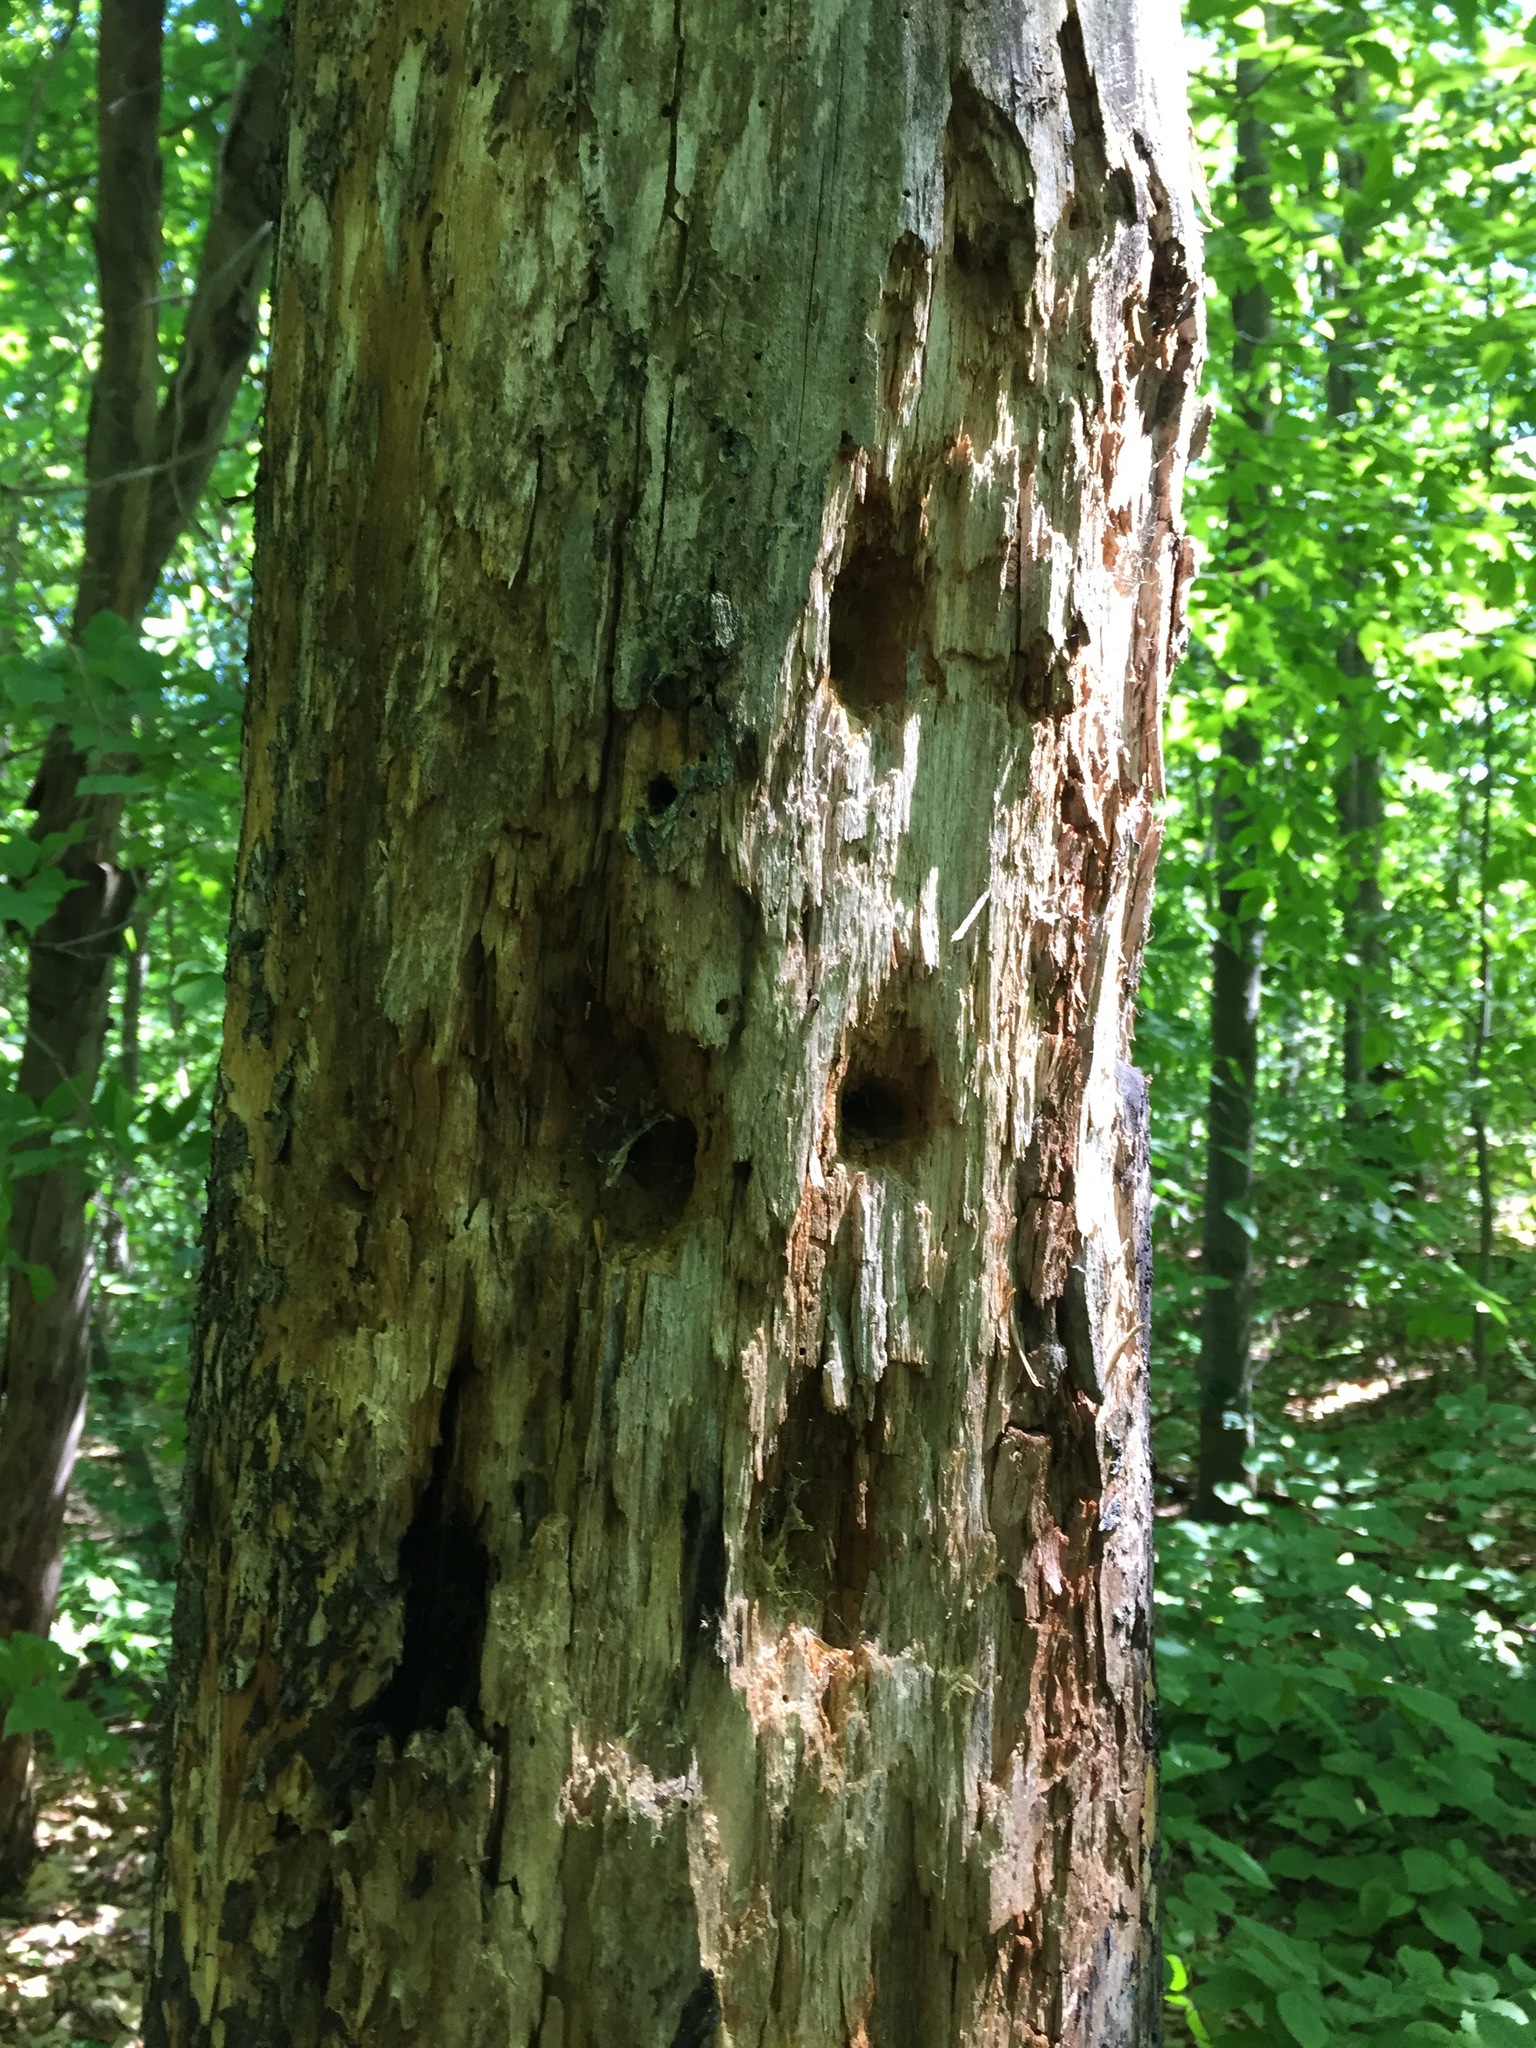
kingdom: Animalia
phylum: Chordata
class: Aves
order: Piciformes
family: Picidae
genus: Dryocopus
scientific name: Dryocopus pileatus
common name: Pileated woodpecker
